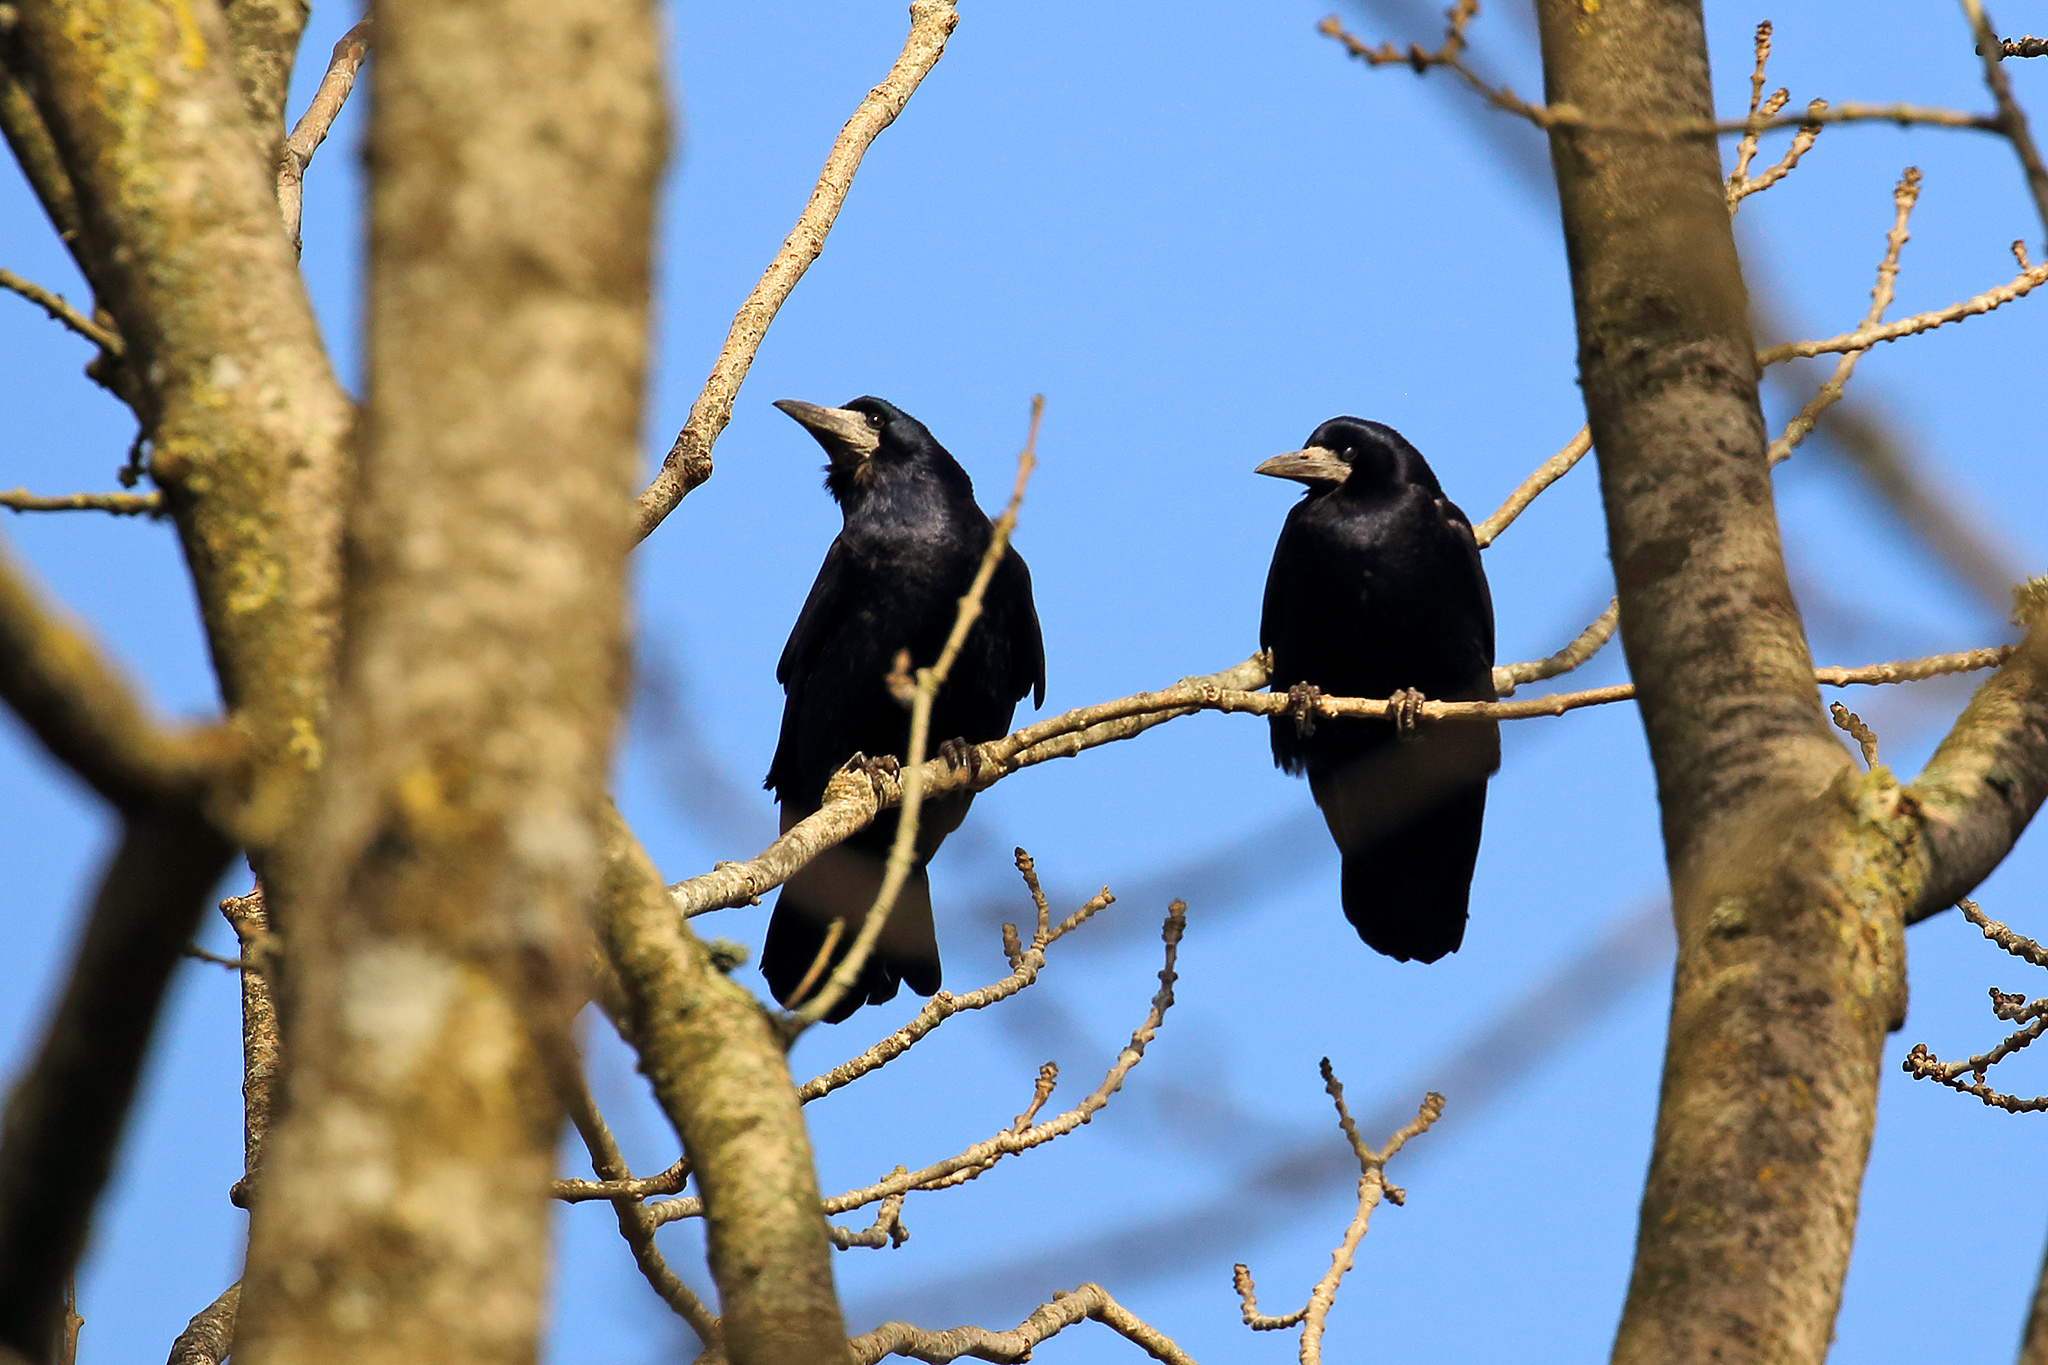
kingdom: Animalia
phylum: Chordata
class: Aves
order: Passeriformes
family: Corvidae
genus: Corvus
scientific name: Corvus frugilegus
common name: Rook
